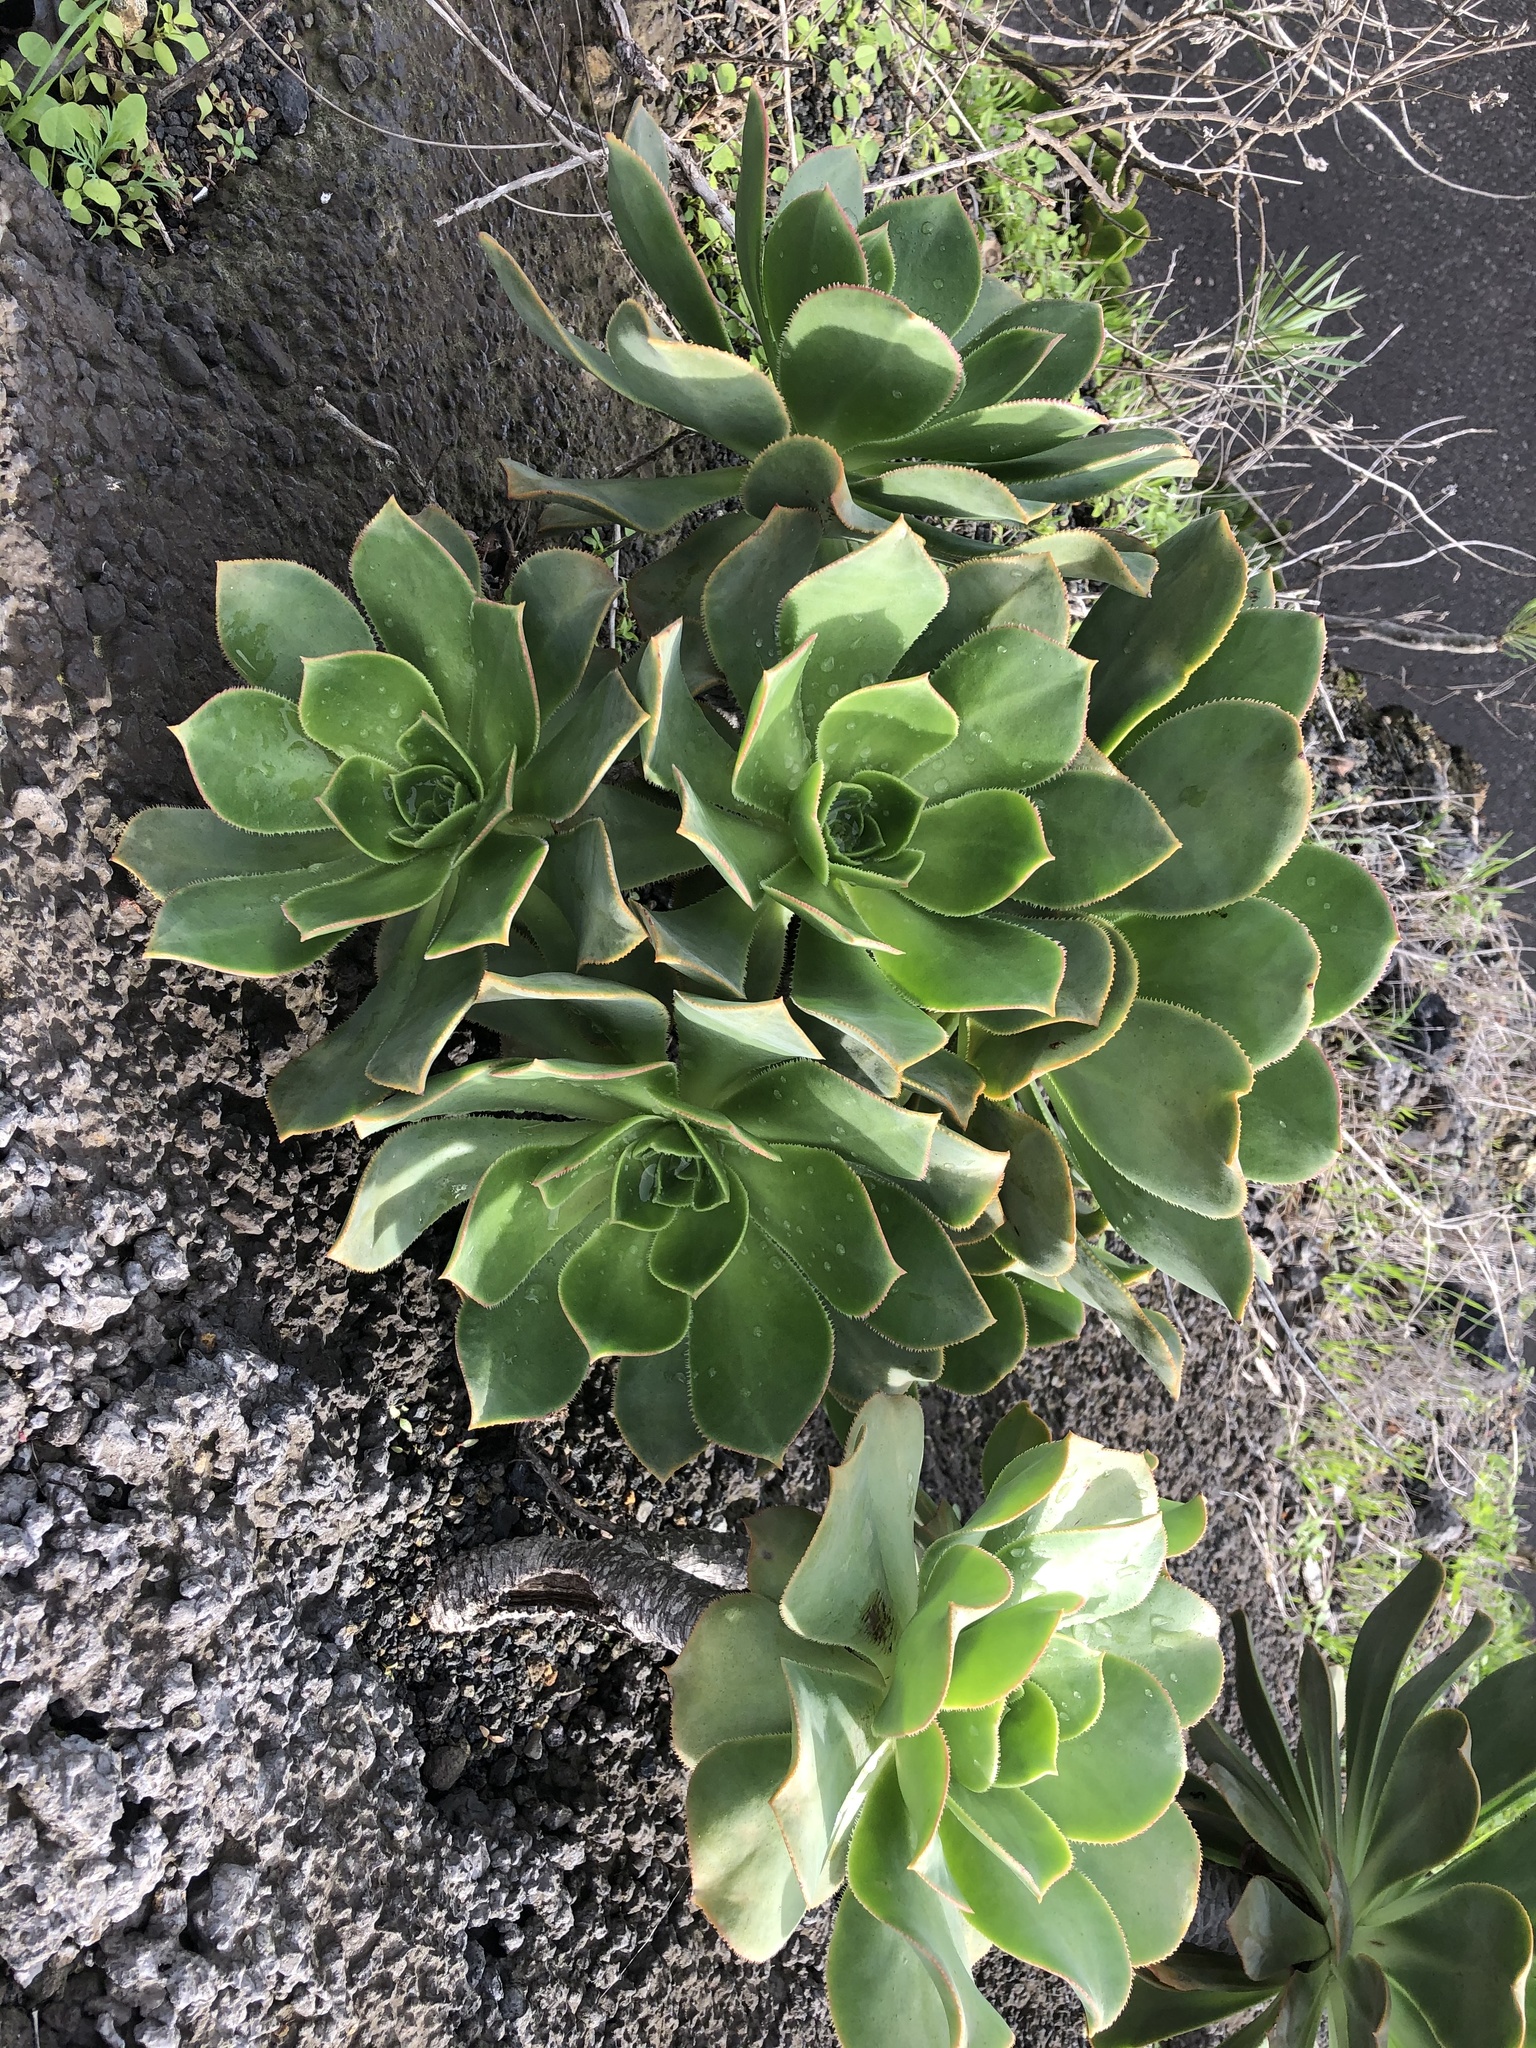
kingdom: Plantae
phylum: Tracheophyta
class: Magnoliopsida
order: Saxifragales
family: Crassulaceae
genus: Aeonium
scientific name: Aeonium valverdense
